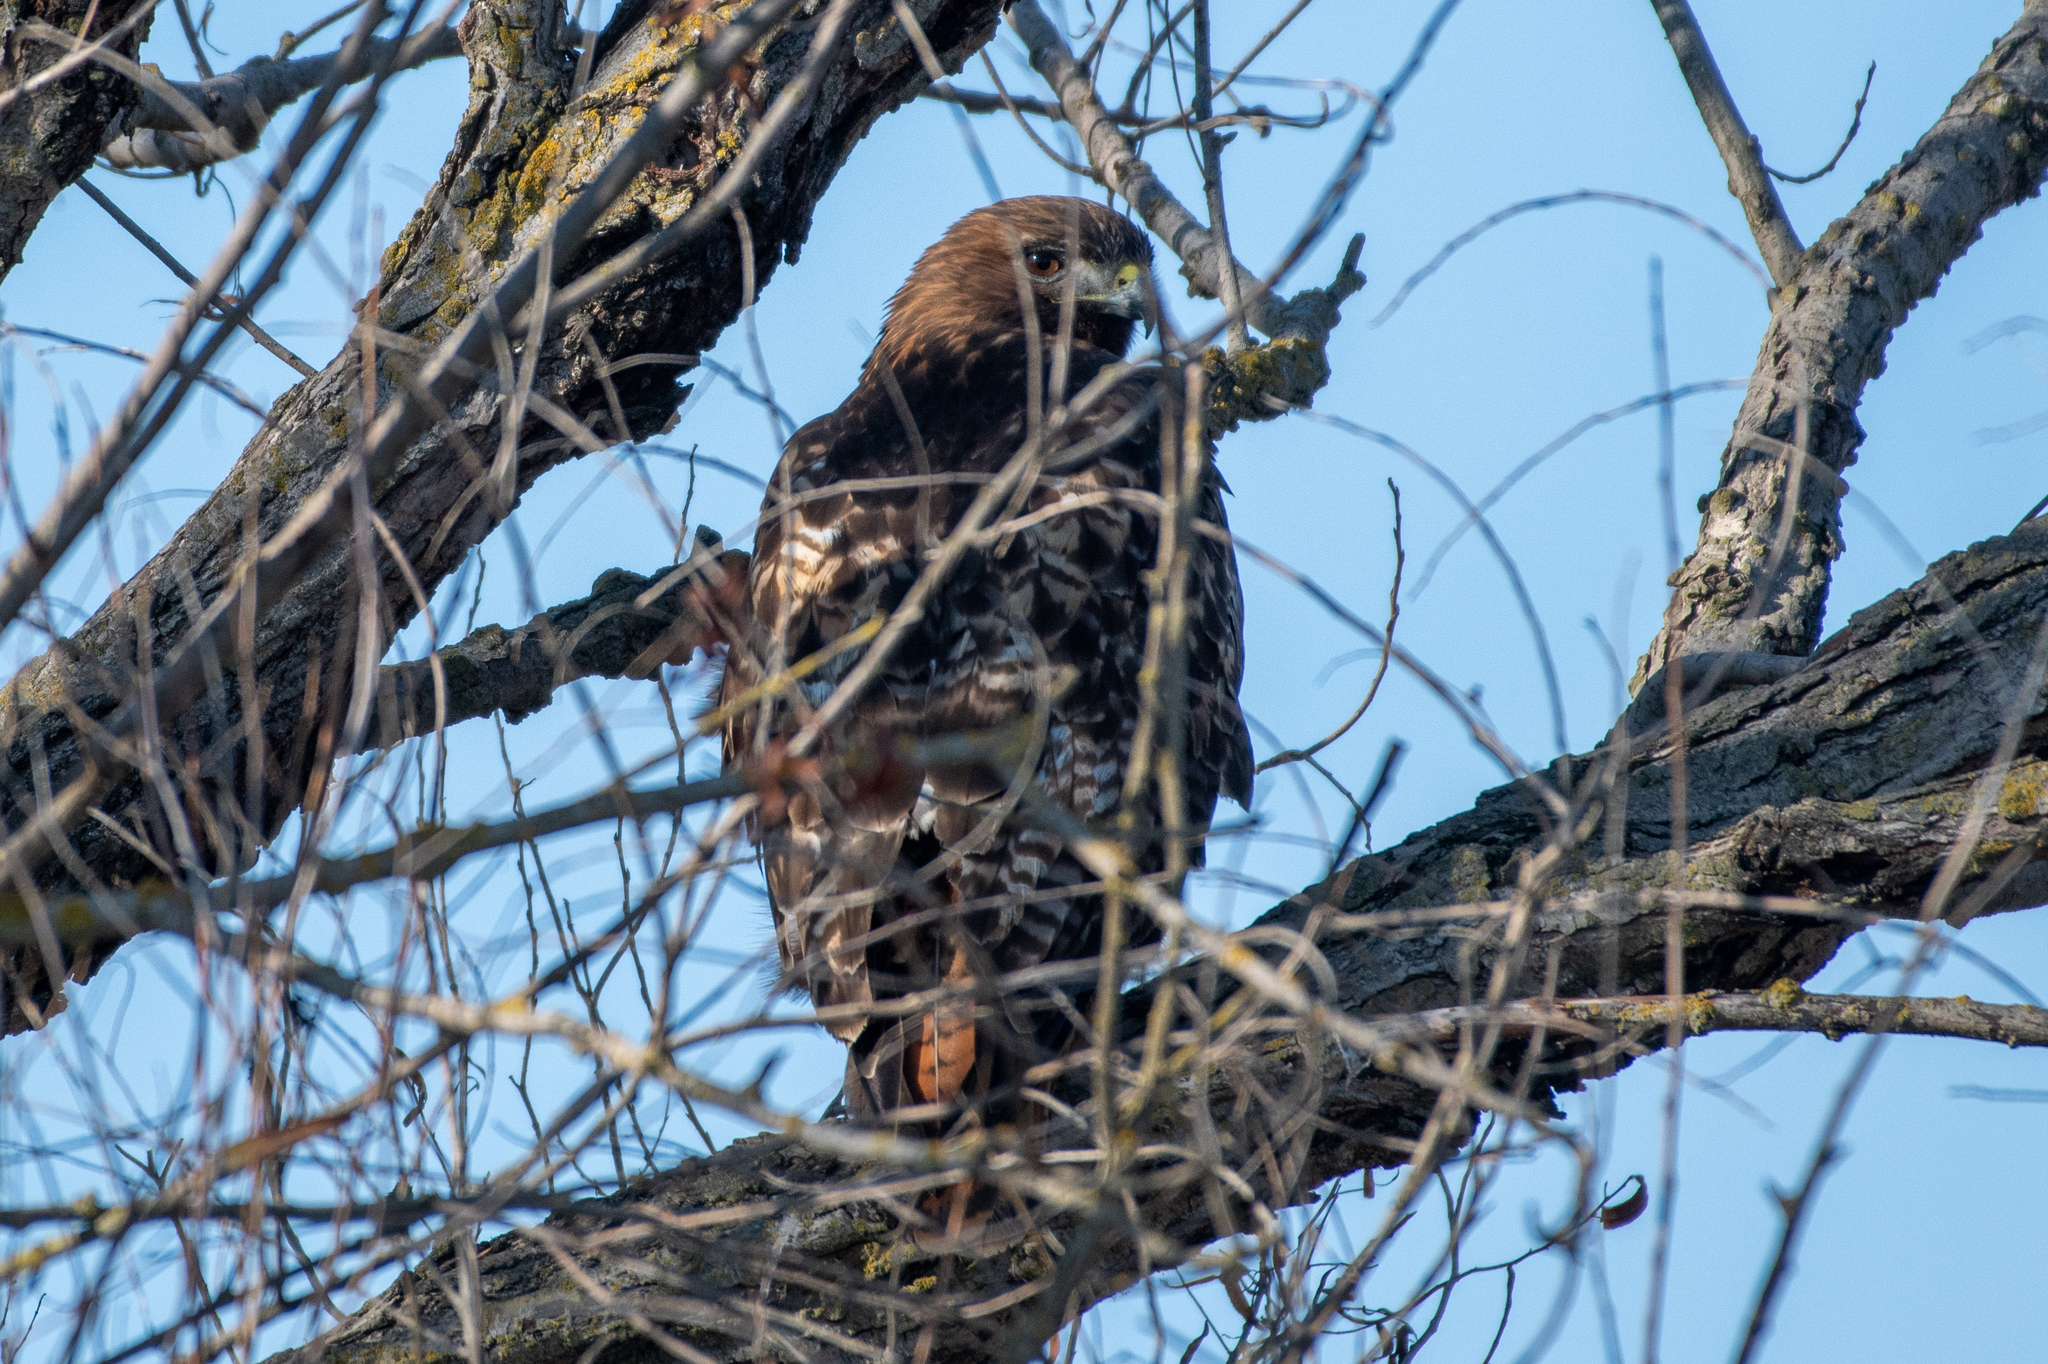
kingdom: Animalia
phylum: Chordata
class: Aves
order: Accipitriformes
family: Accipitridae
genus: Buteo
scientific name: Buteo jamaicensis
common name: Red-tailed hawk
